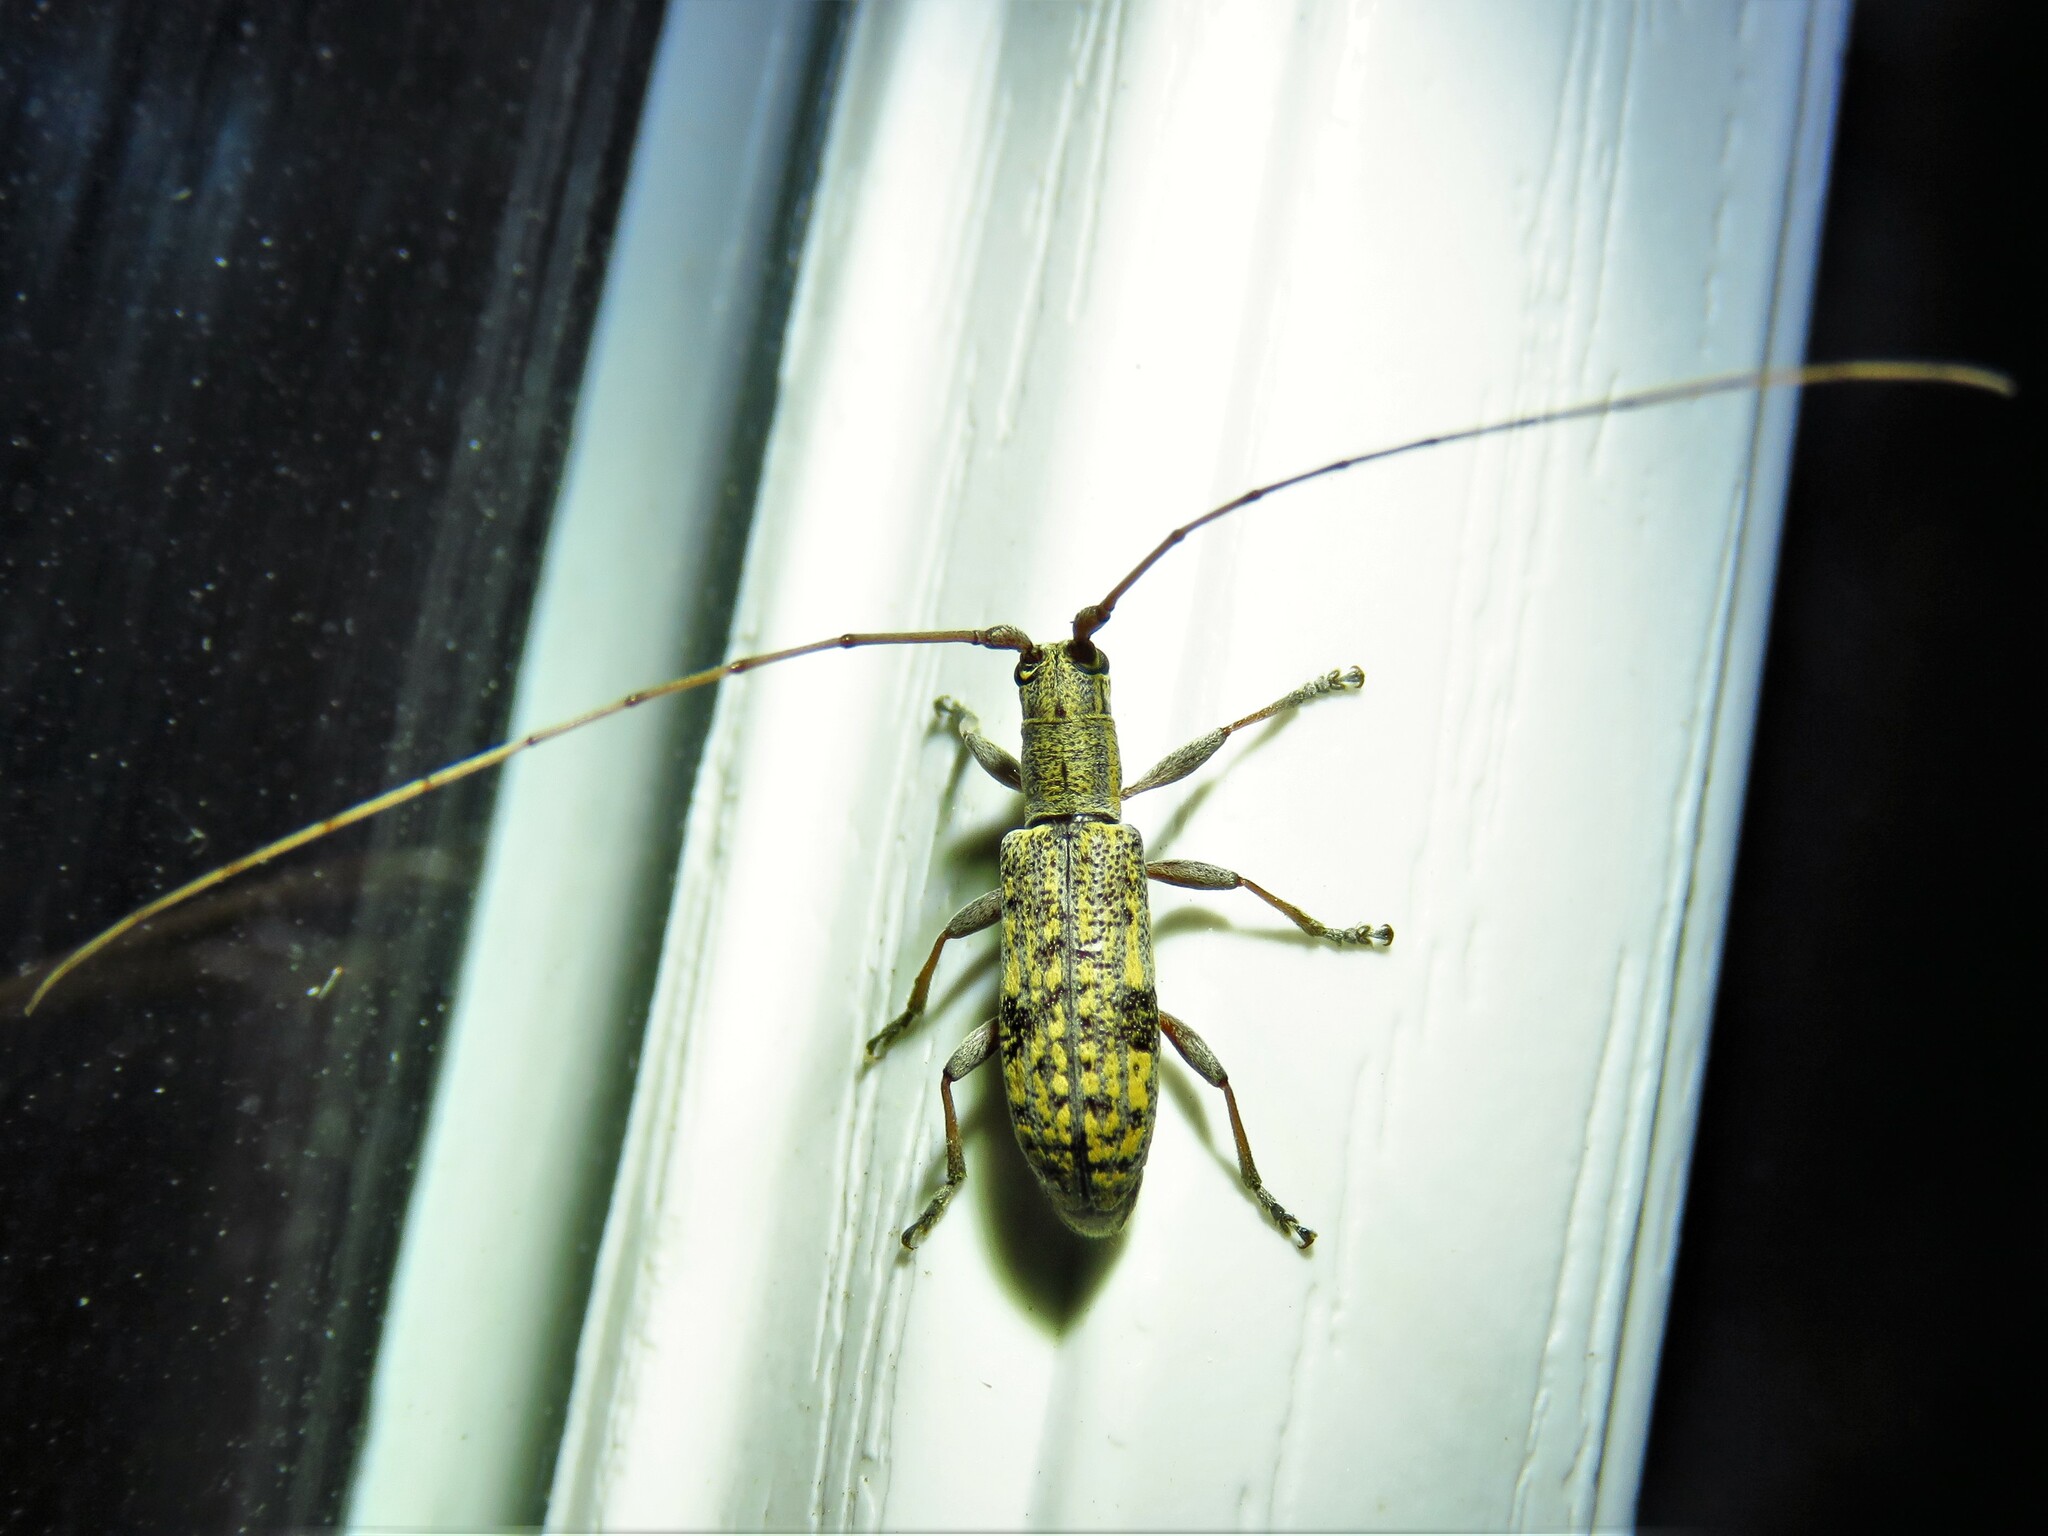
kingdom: Animalia
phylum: Arthropoda
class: Insecta
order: Coleoptera
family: Cerambycidae
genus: Dorcaschema
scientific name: Dorcaschema alternatum
